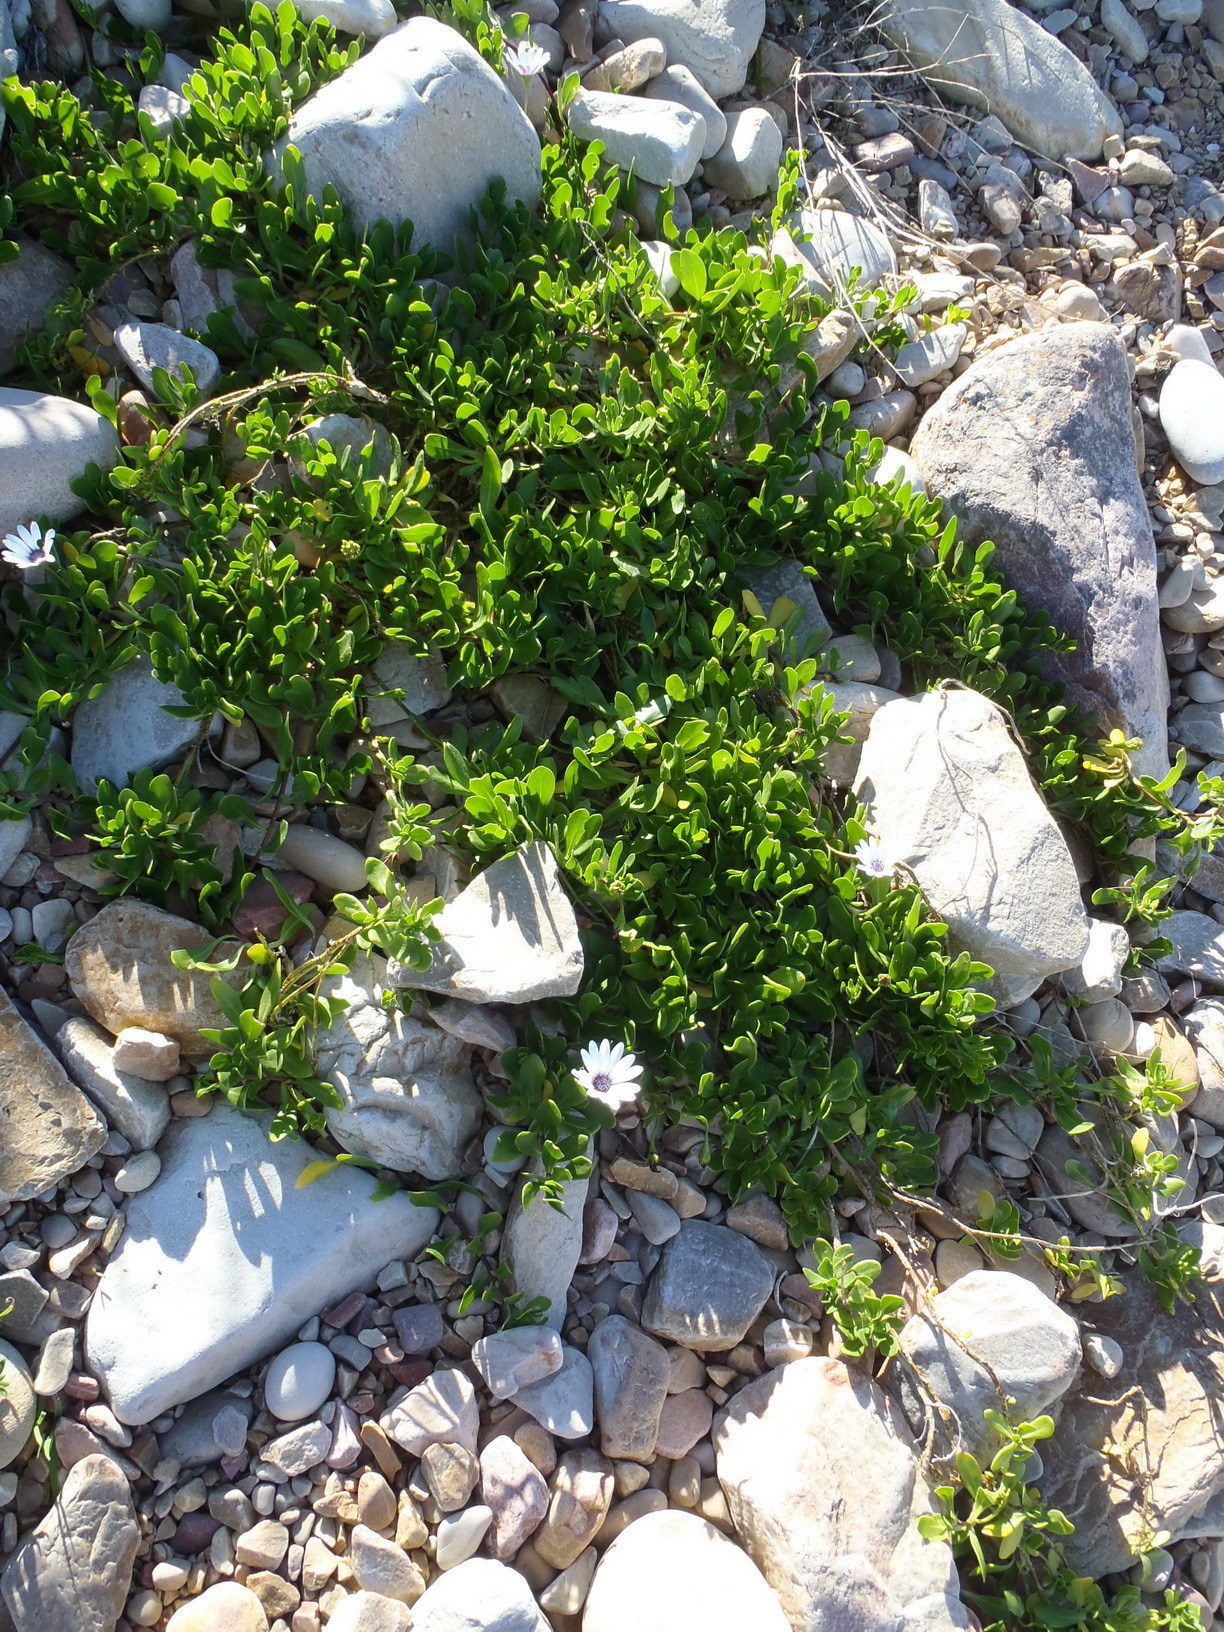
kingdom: Plantae
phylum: Tracheophyta
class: Magnoliopsida
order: Asterales
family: Asteraceae
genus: Dimorphotheca
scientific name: Dimorphotheca fruticosa
